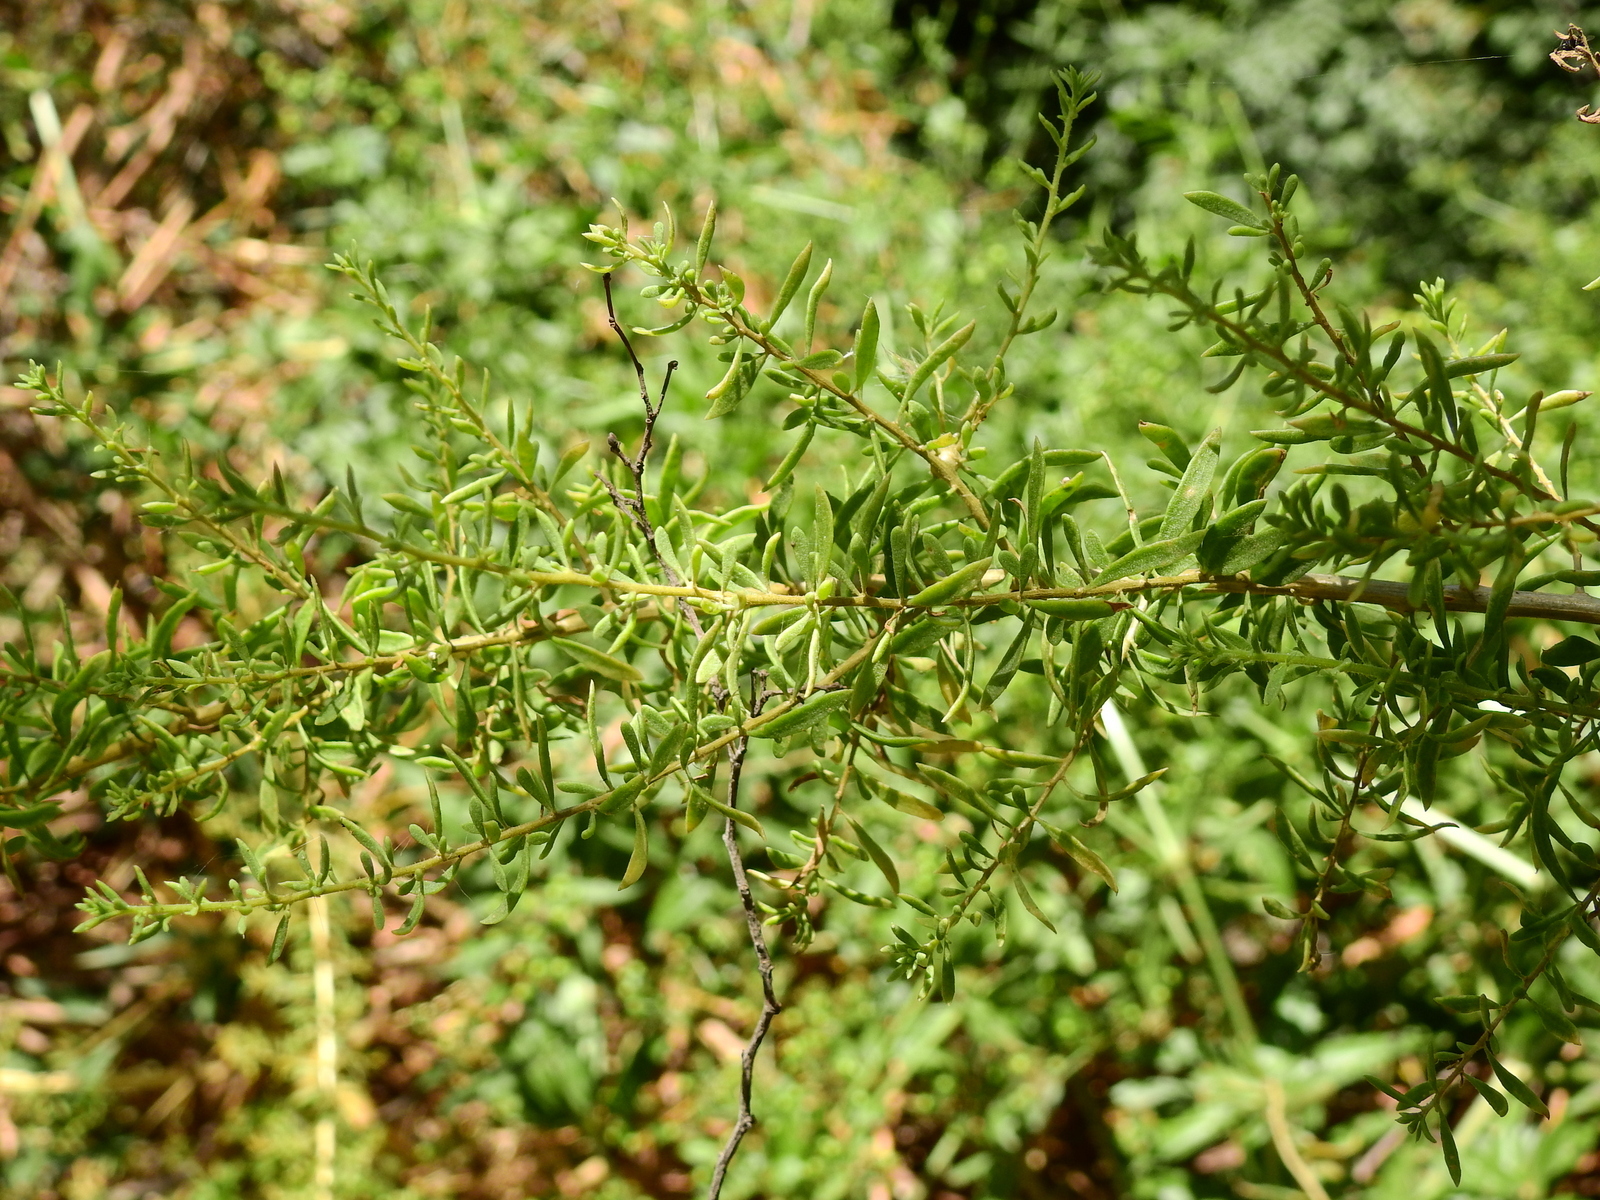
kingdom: Plantae
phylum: Tracheophyta
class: Magnoliopsida
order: Solanales
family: Solanaceae
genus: Lycium
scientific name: Lycium tenuispinosum
